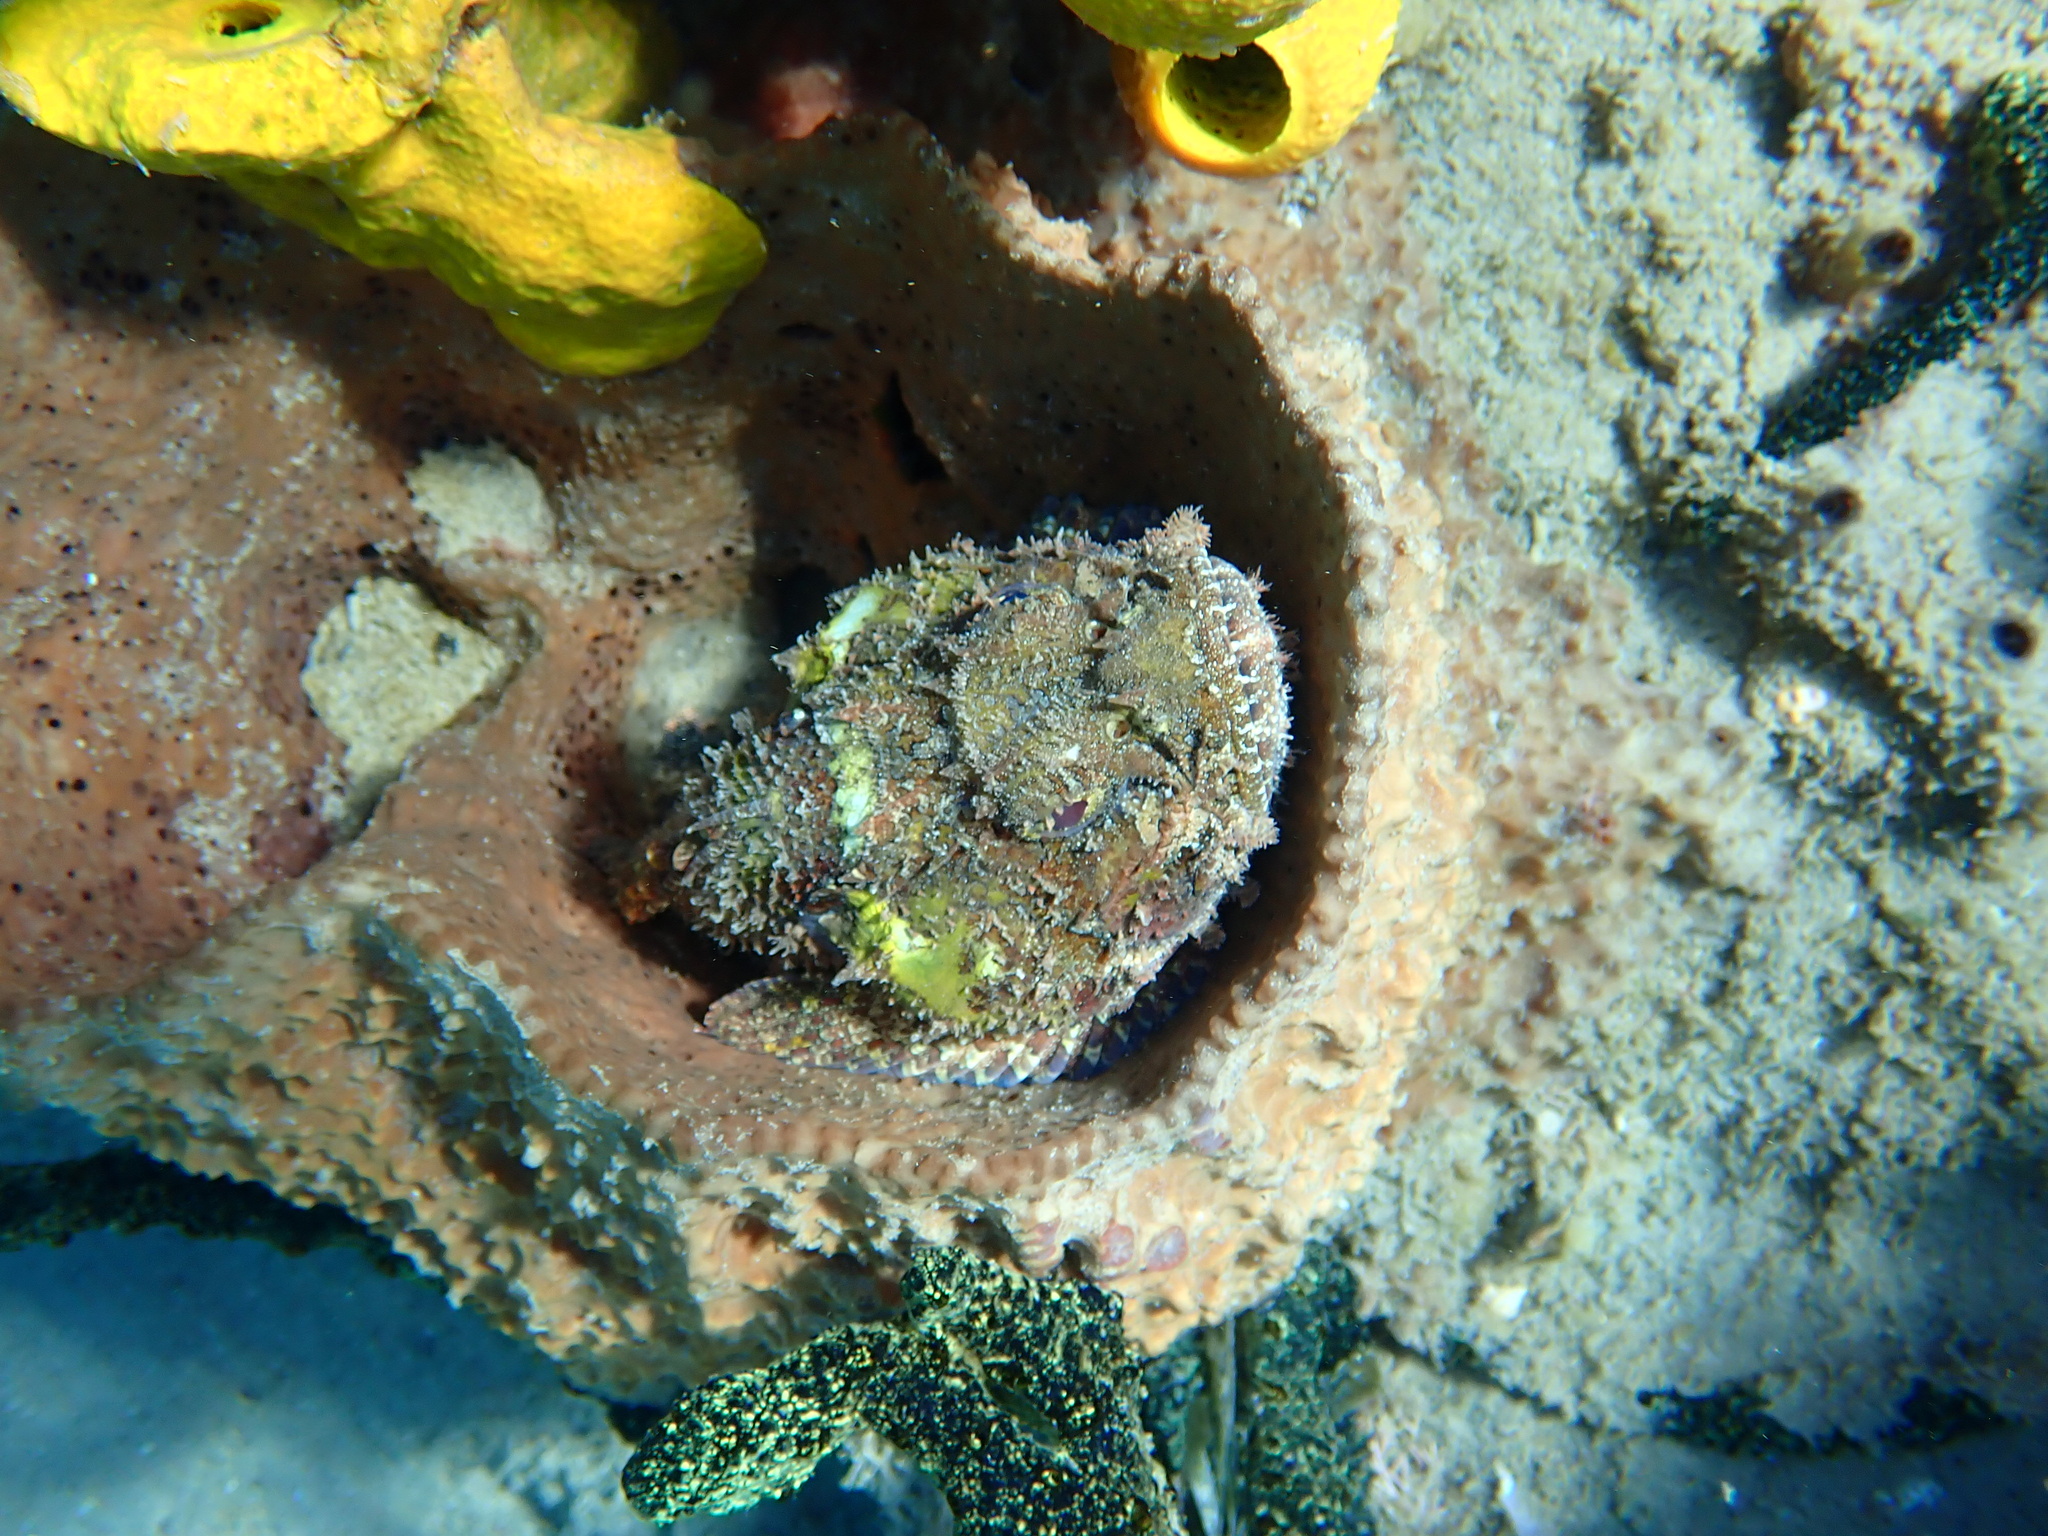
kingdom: Animalia
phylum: Chordata
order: Scorpaeniformes
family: Scorpaenidae
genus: Scorpaena
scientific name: Scorpaena plumieri
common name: Spotted scorpionfish
